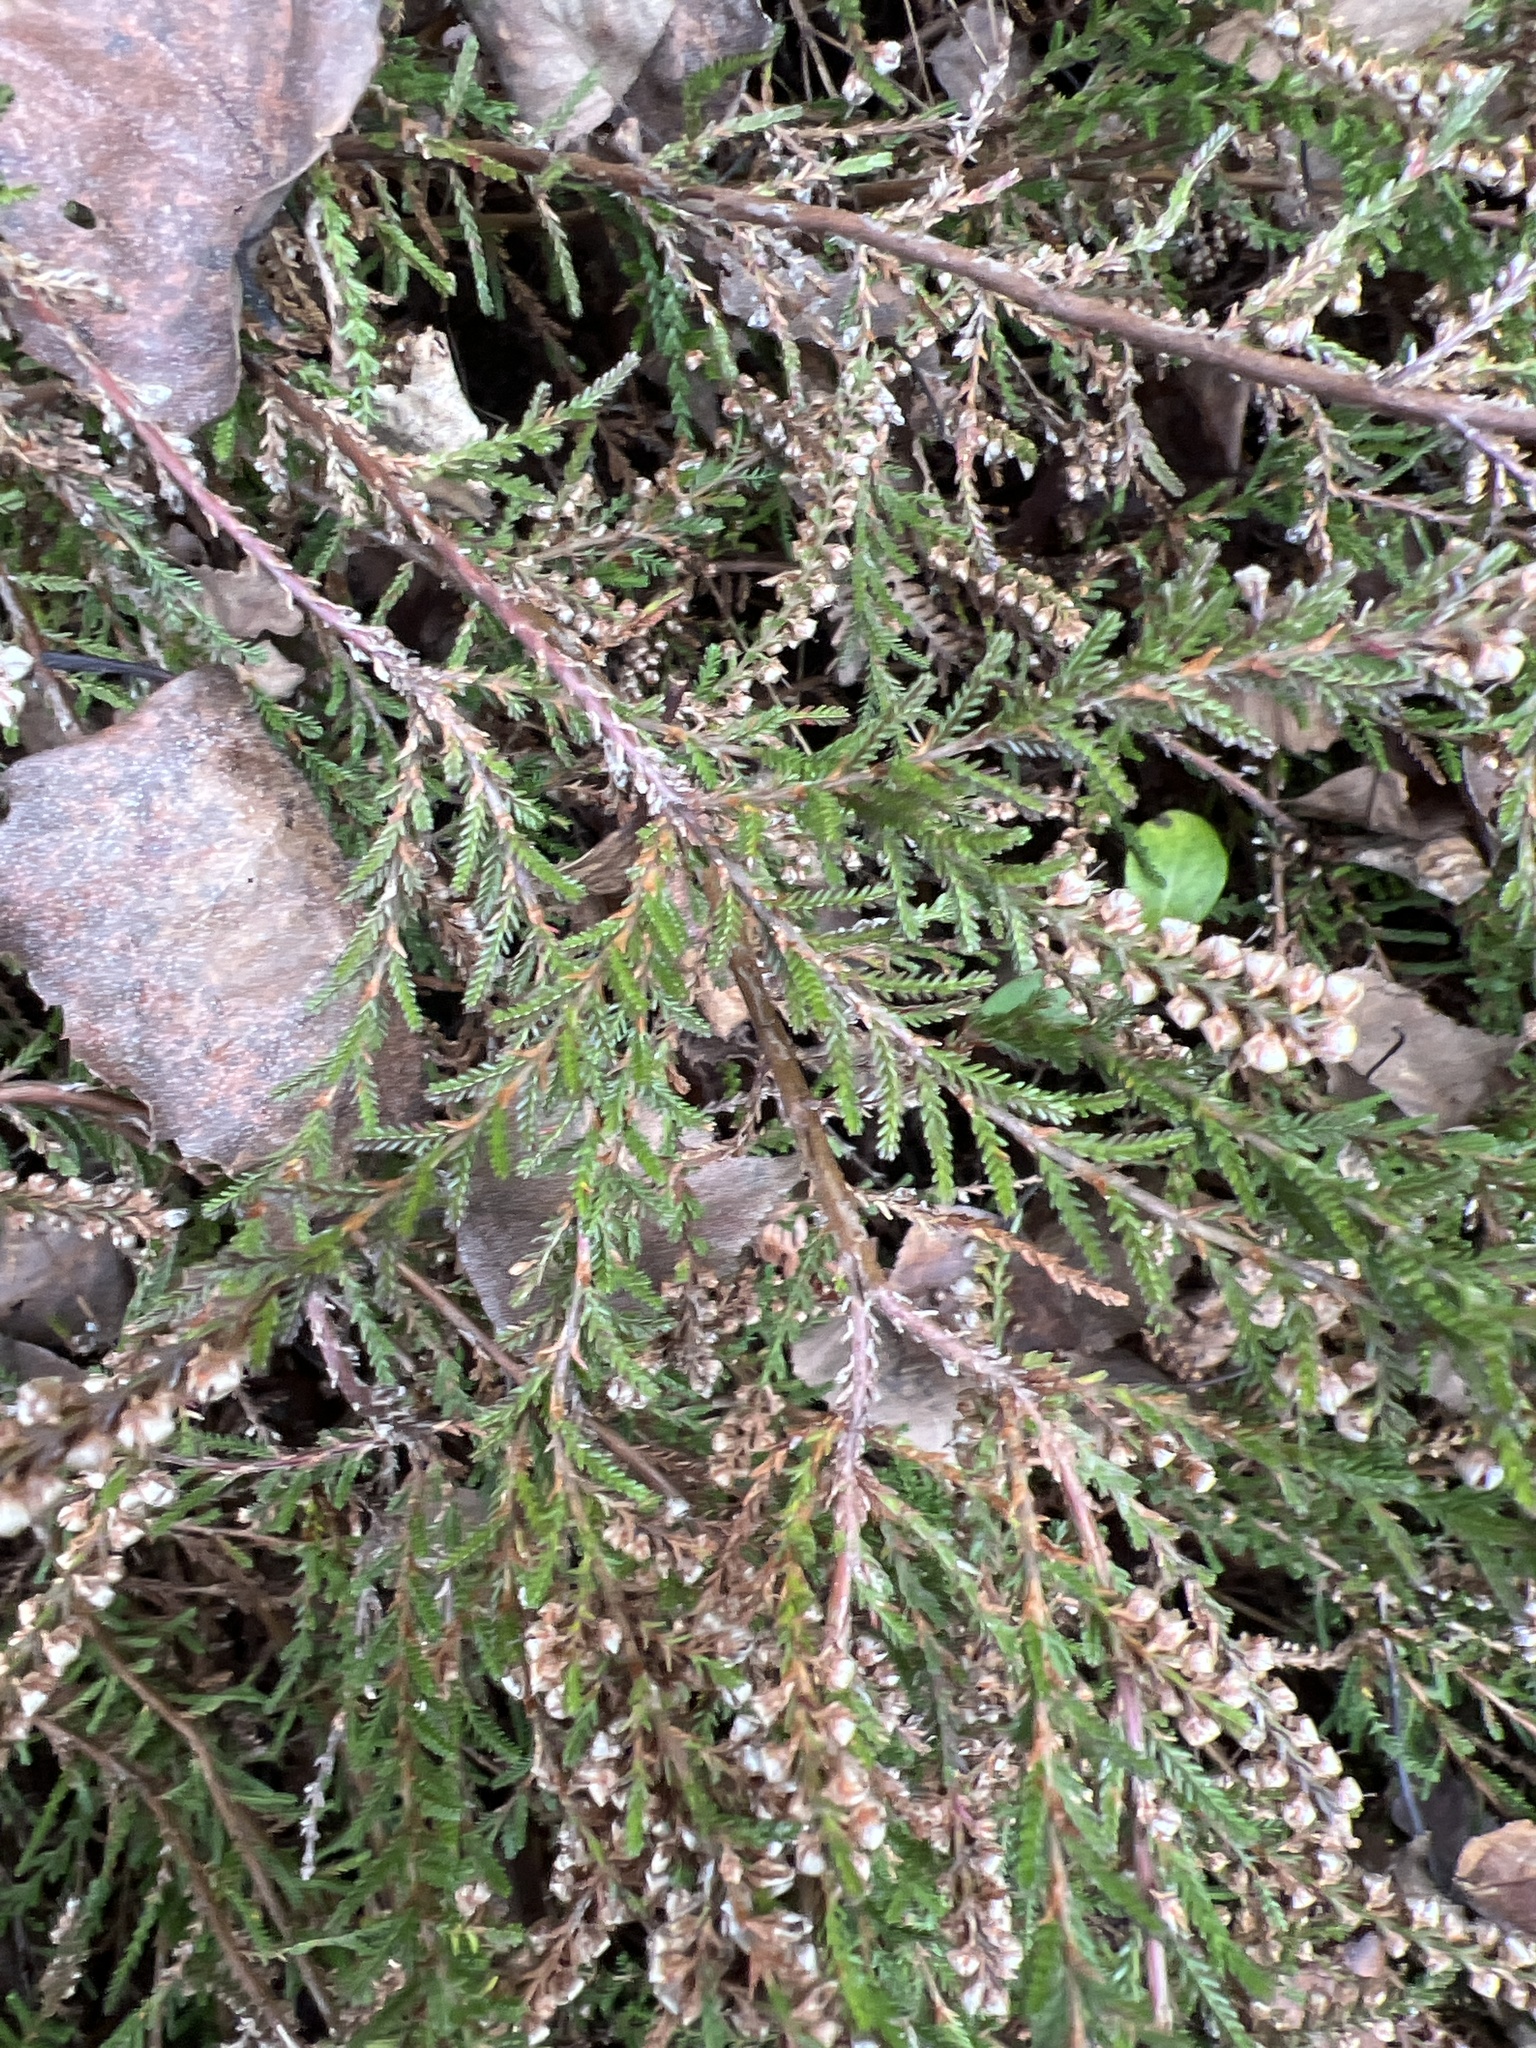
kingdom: Plantae
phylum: Tracheophyta
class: Magnoliopsida
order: Ericales
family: Ericaceae
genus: Calluna
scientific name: Calluna vulgaris
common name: Heather
